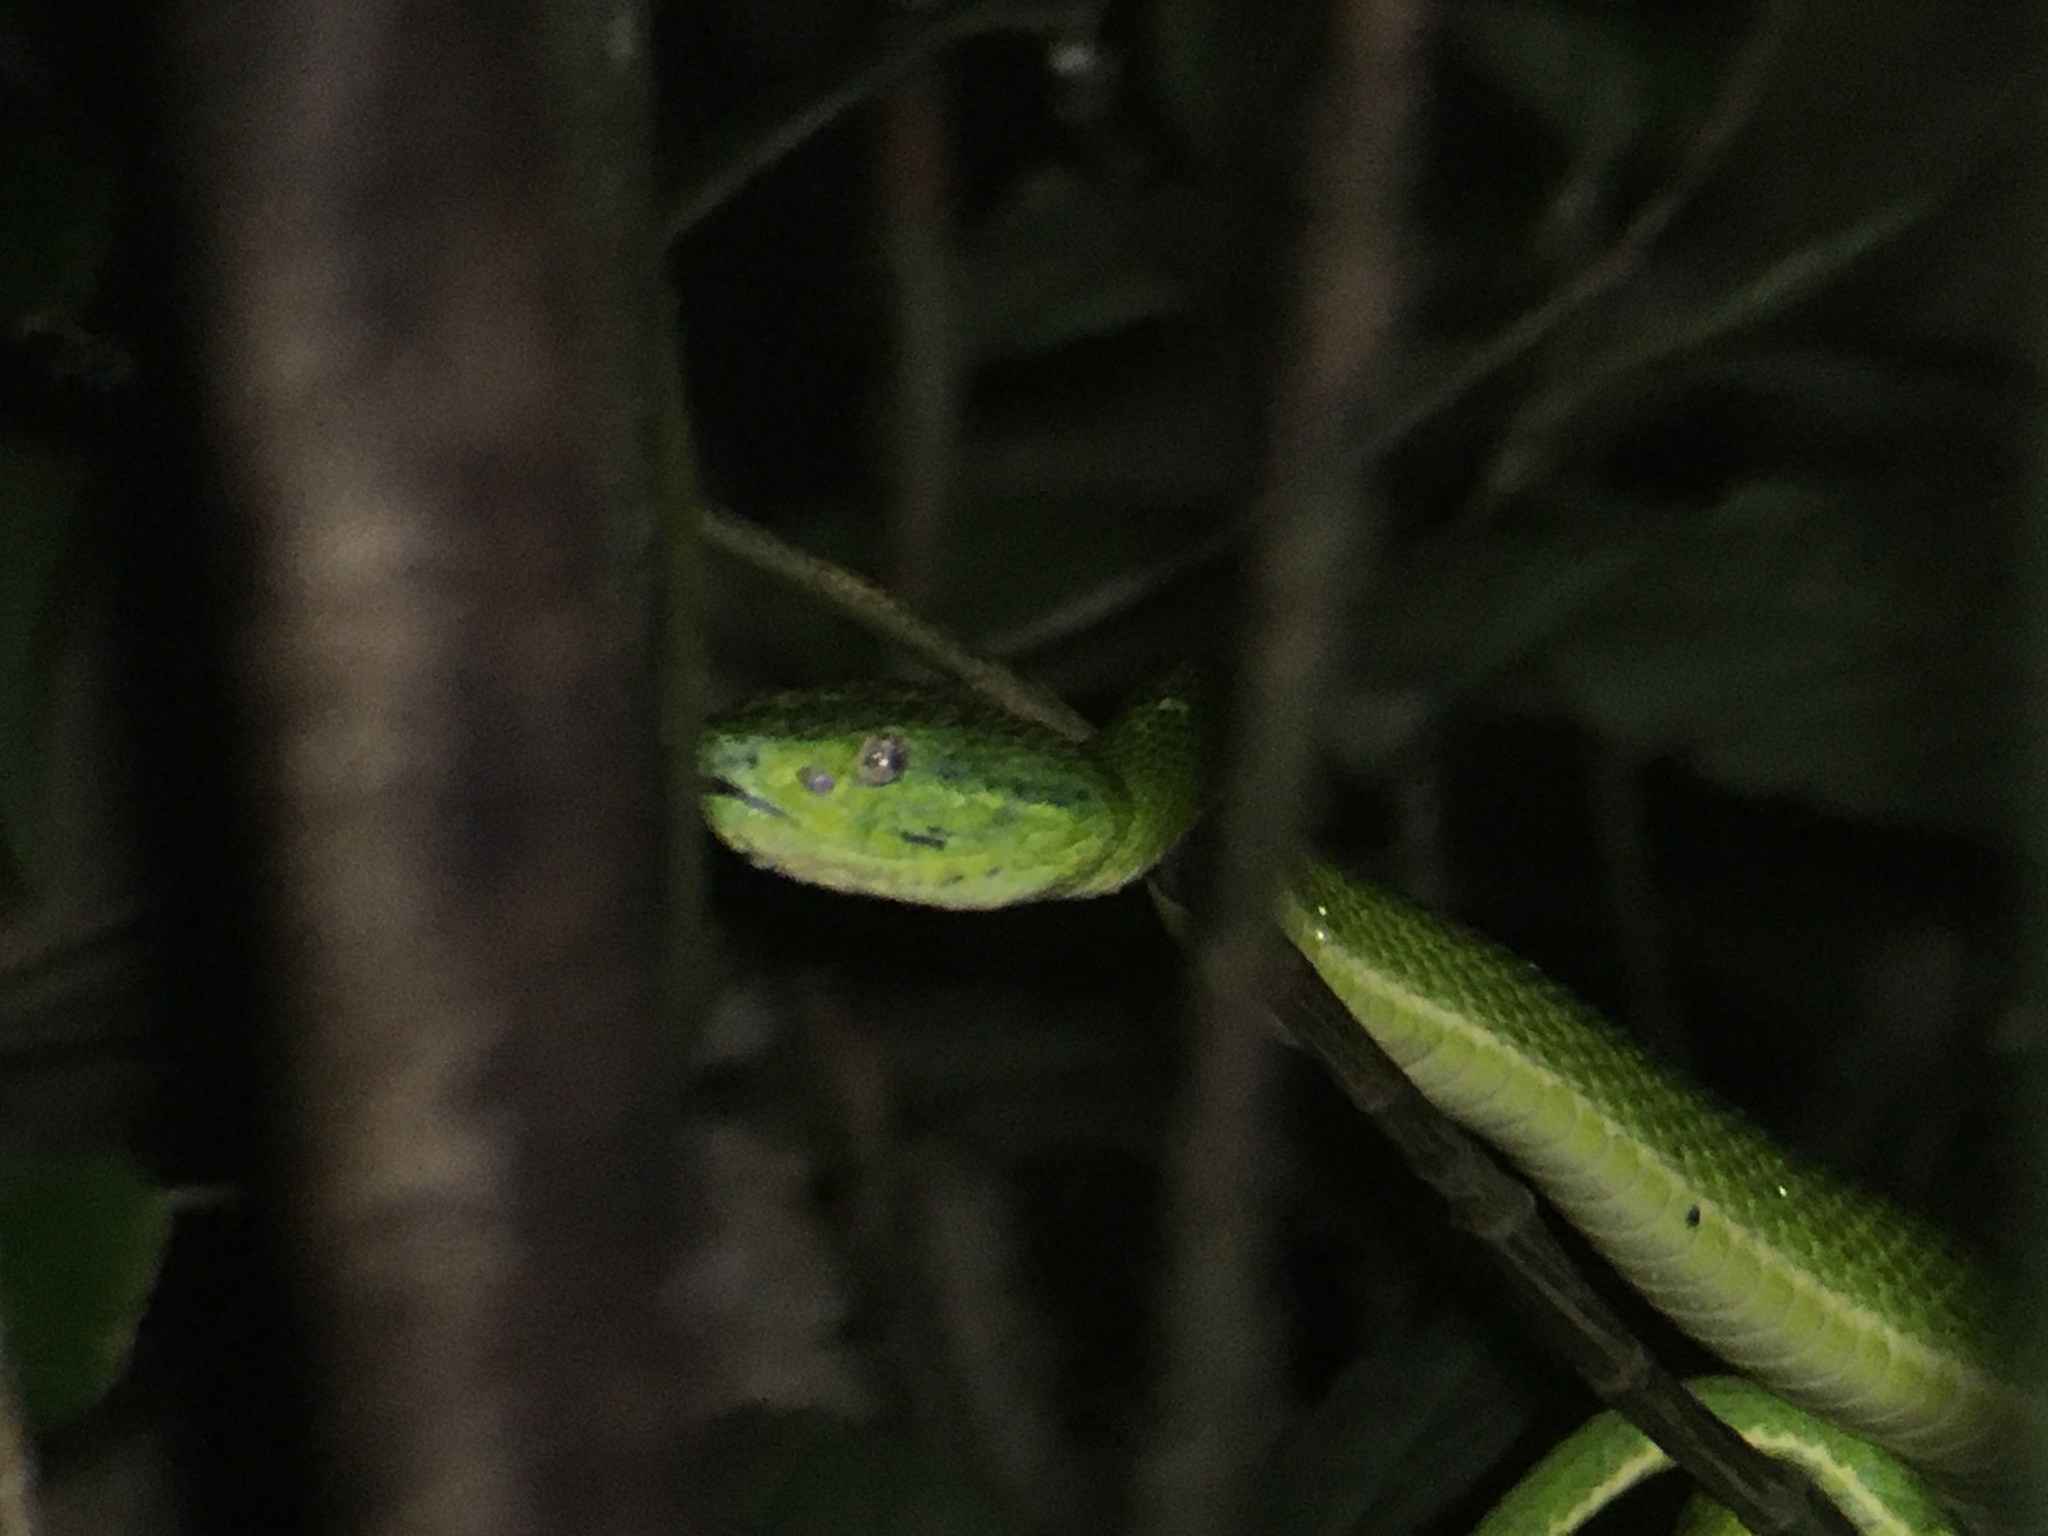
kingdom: Animalia
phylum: Chordata
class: Squamata
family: Viperidae
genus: Bothriechis
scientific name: Bothriechis lateralis
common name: Coffee palm viper
